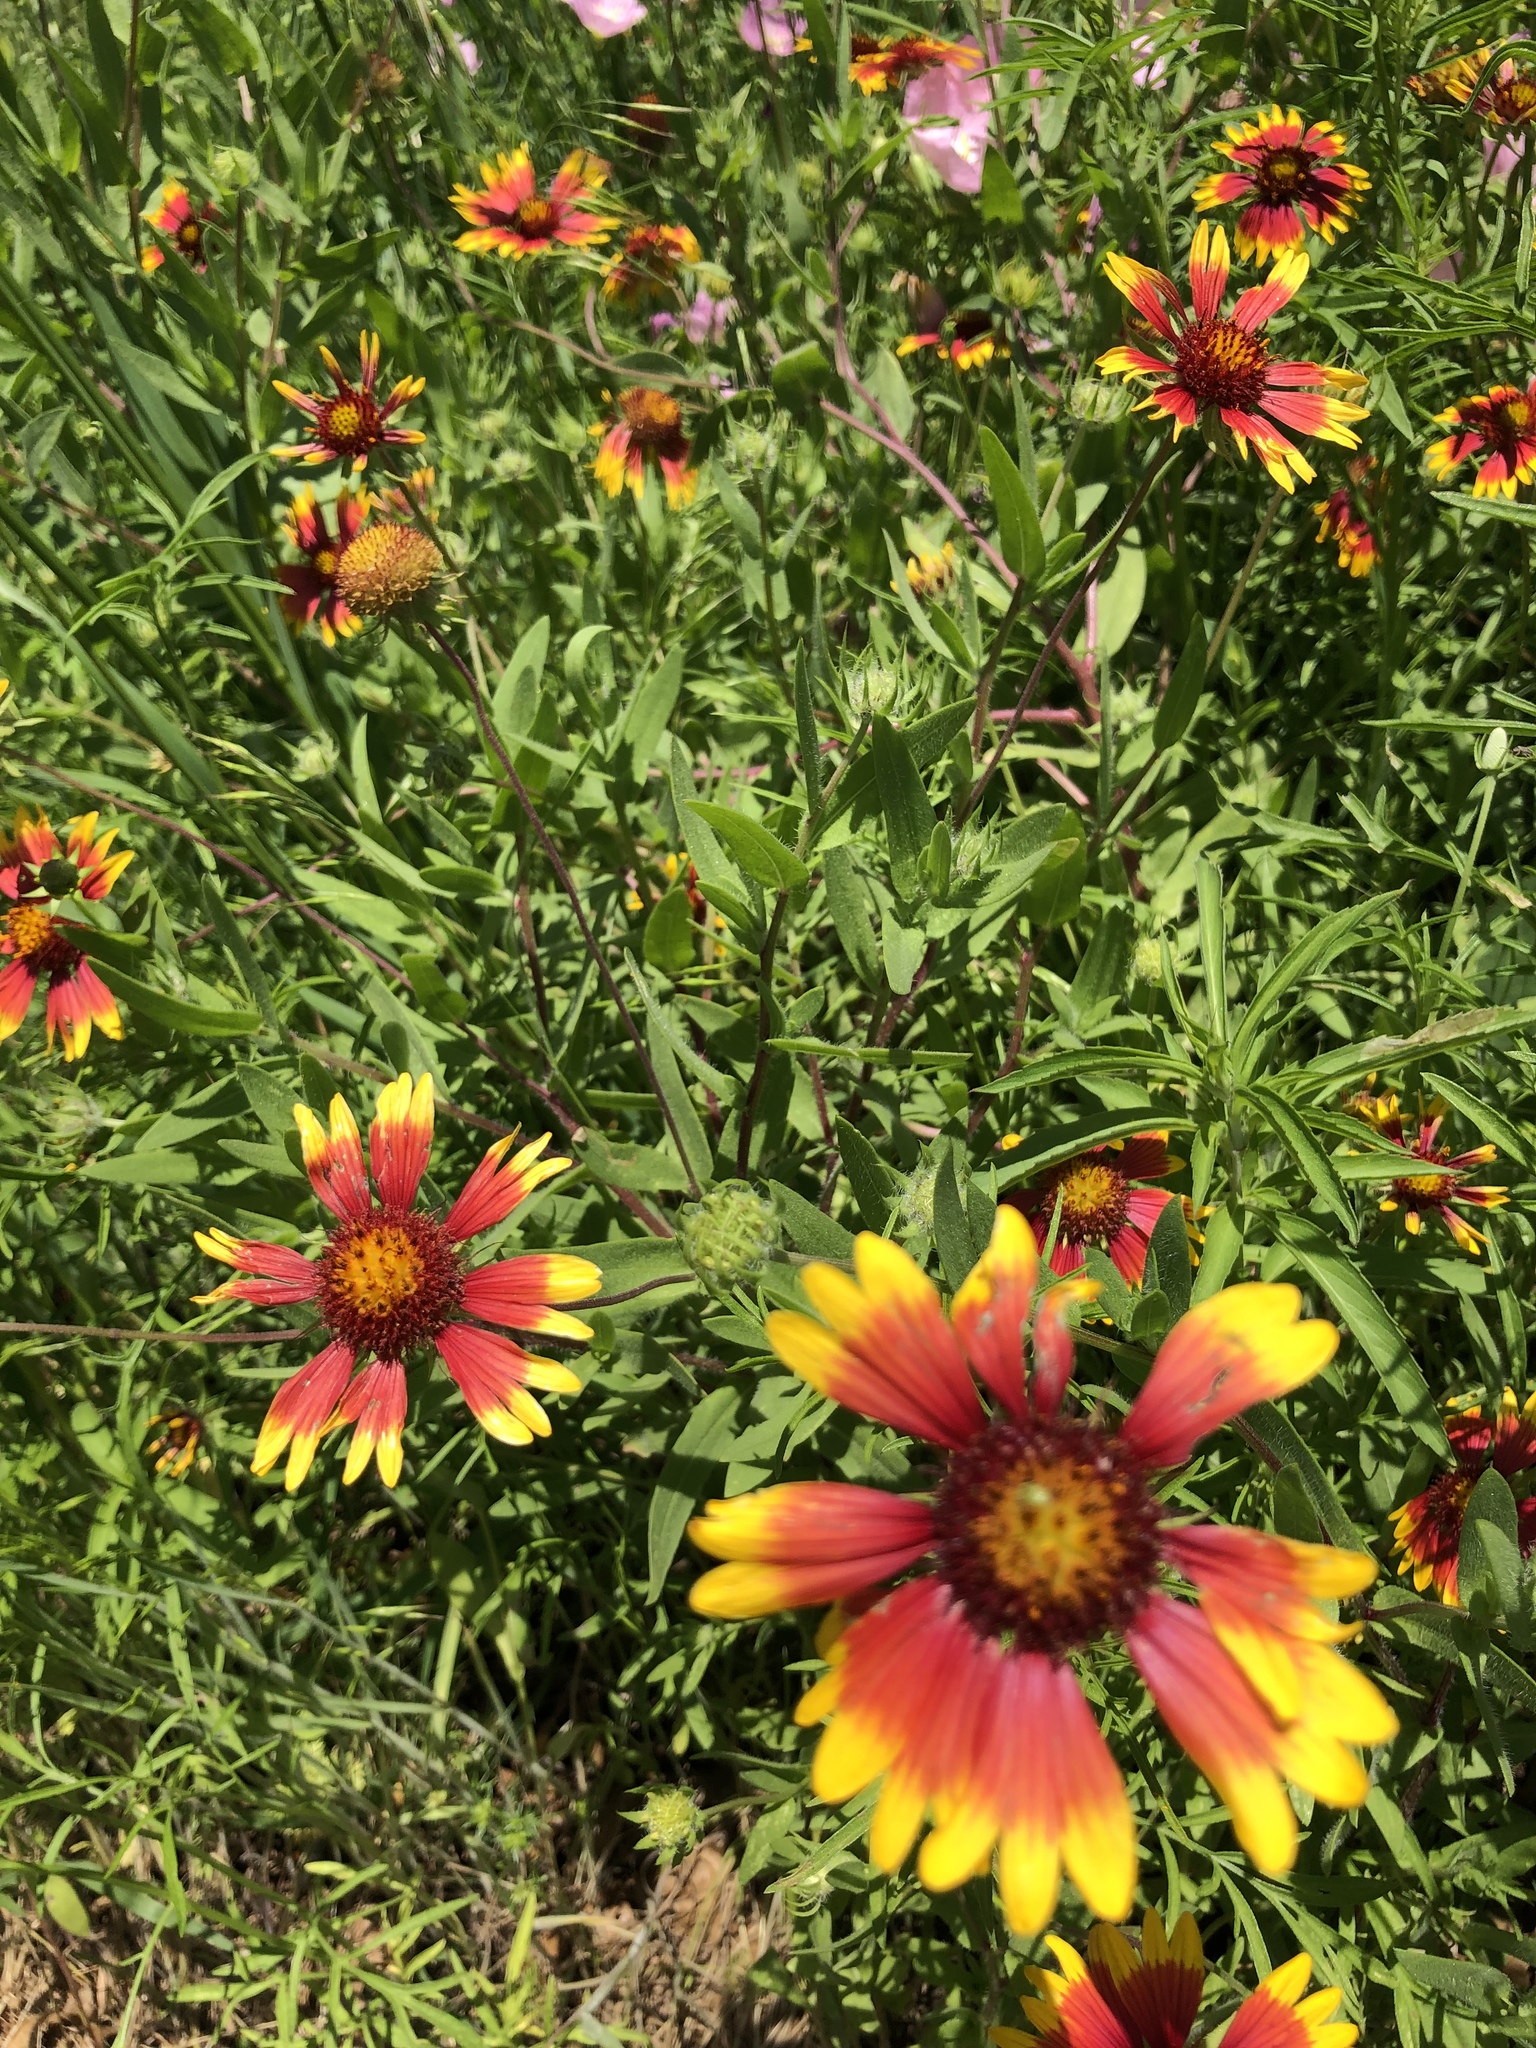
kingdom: Plantae
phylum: Tracheophyta
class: Magnoliopsida
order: Asterales
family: Asteraceae
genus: Gaillardia
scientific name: Gaillardia pulchella
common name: Firewheel
